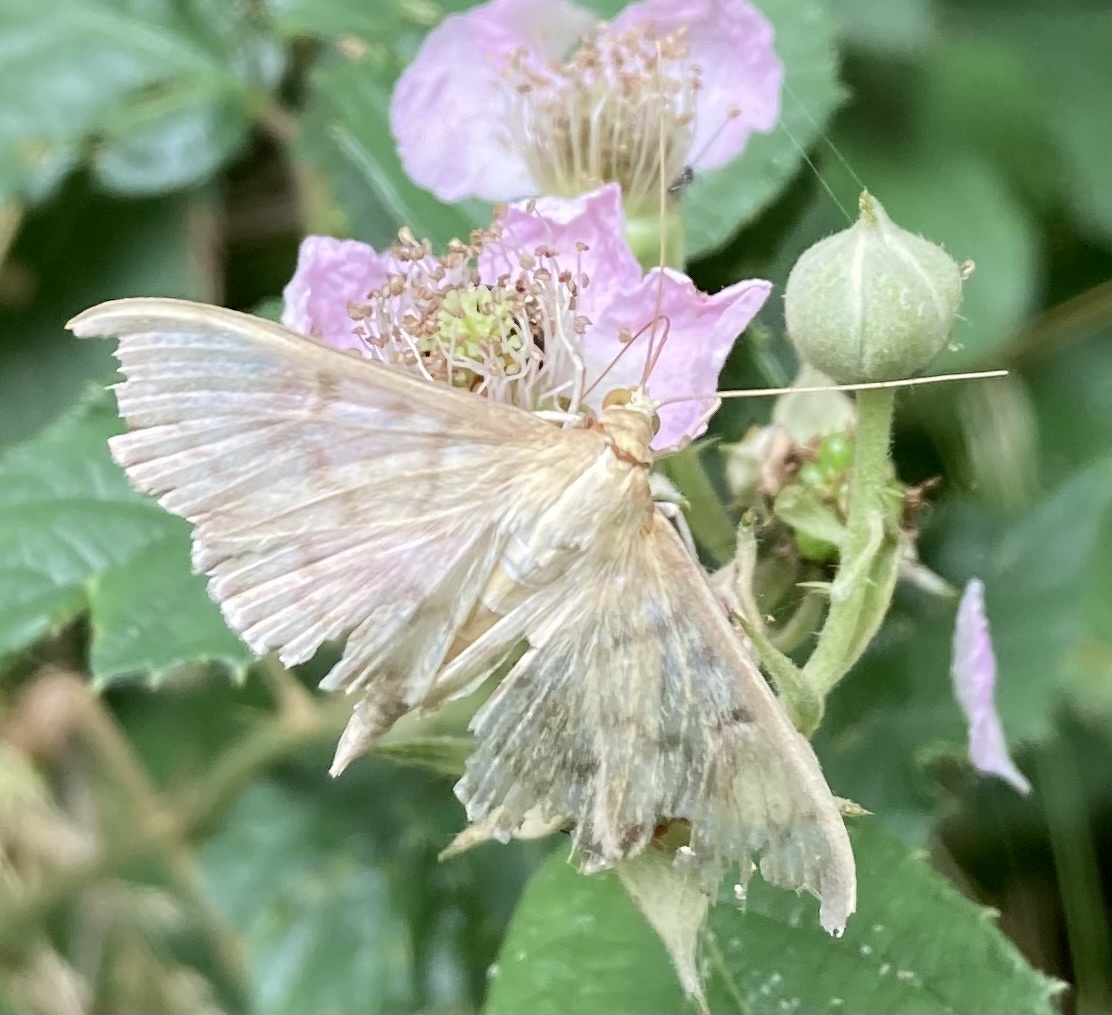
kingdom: Animalia
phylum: Arthropoda
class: Insecta
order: Lepidoptera
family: Crambidae
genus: Patania
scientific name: Patania ruralis
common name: Mother of pearl
